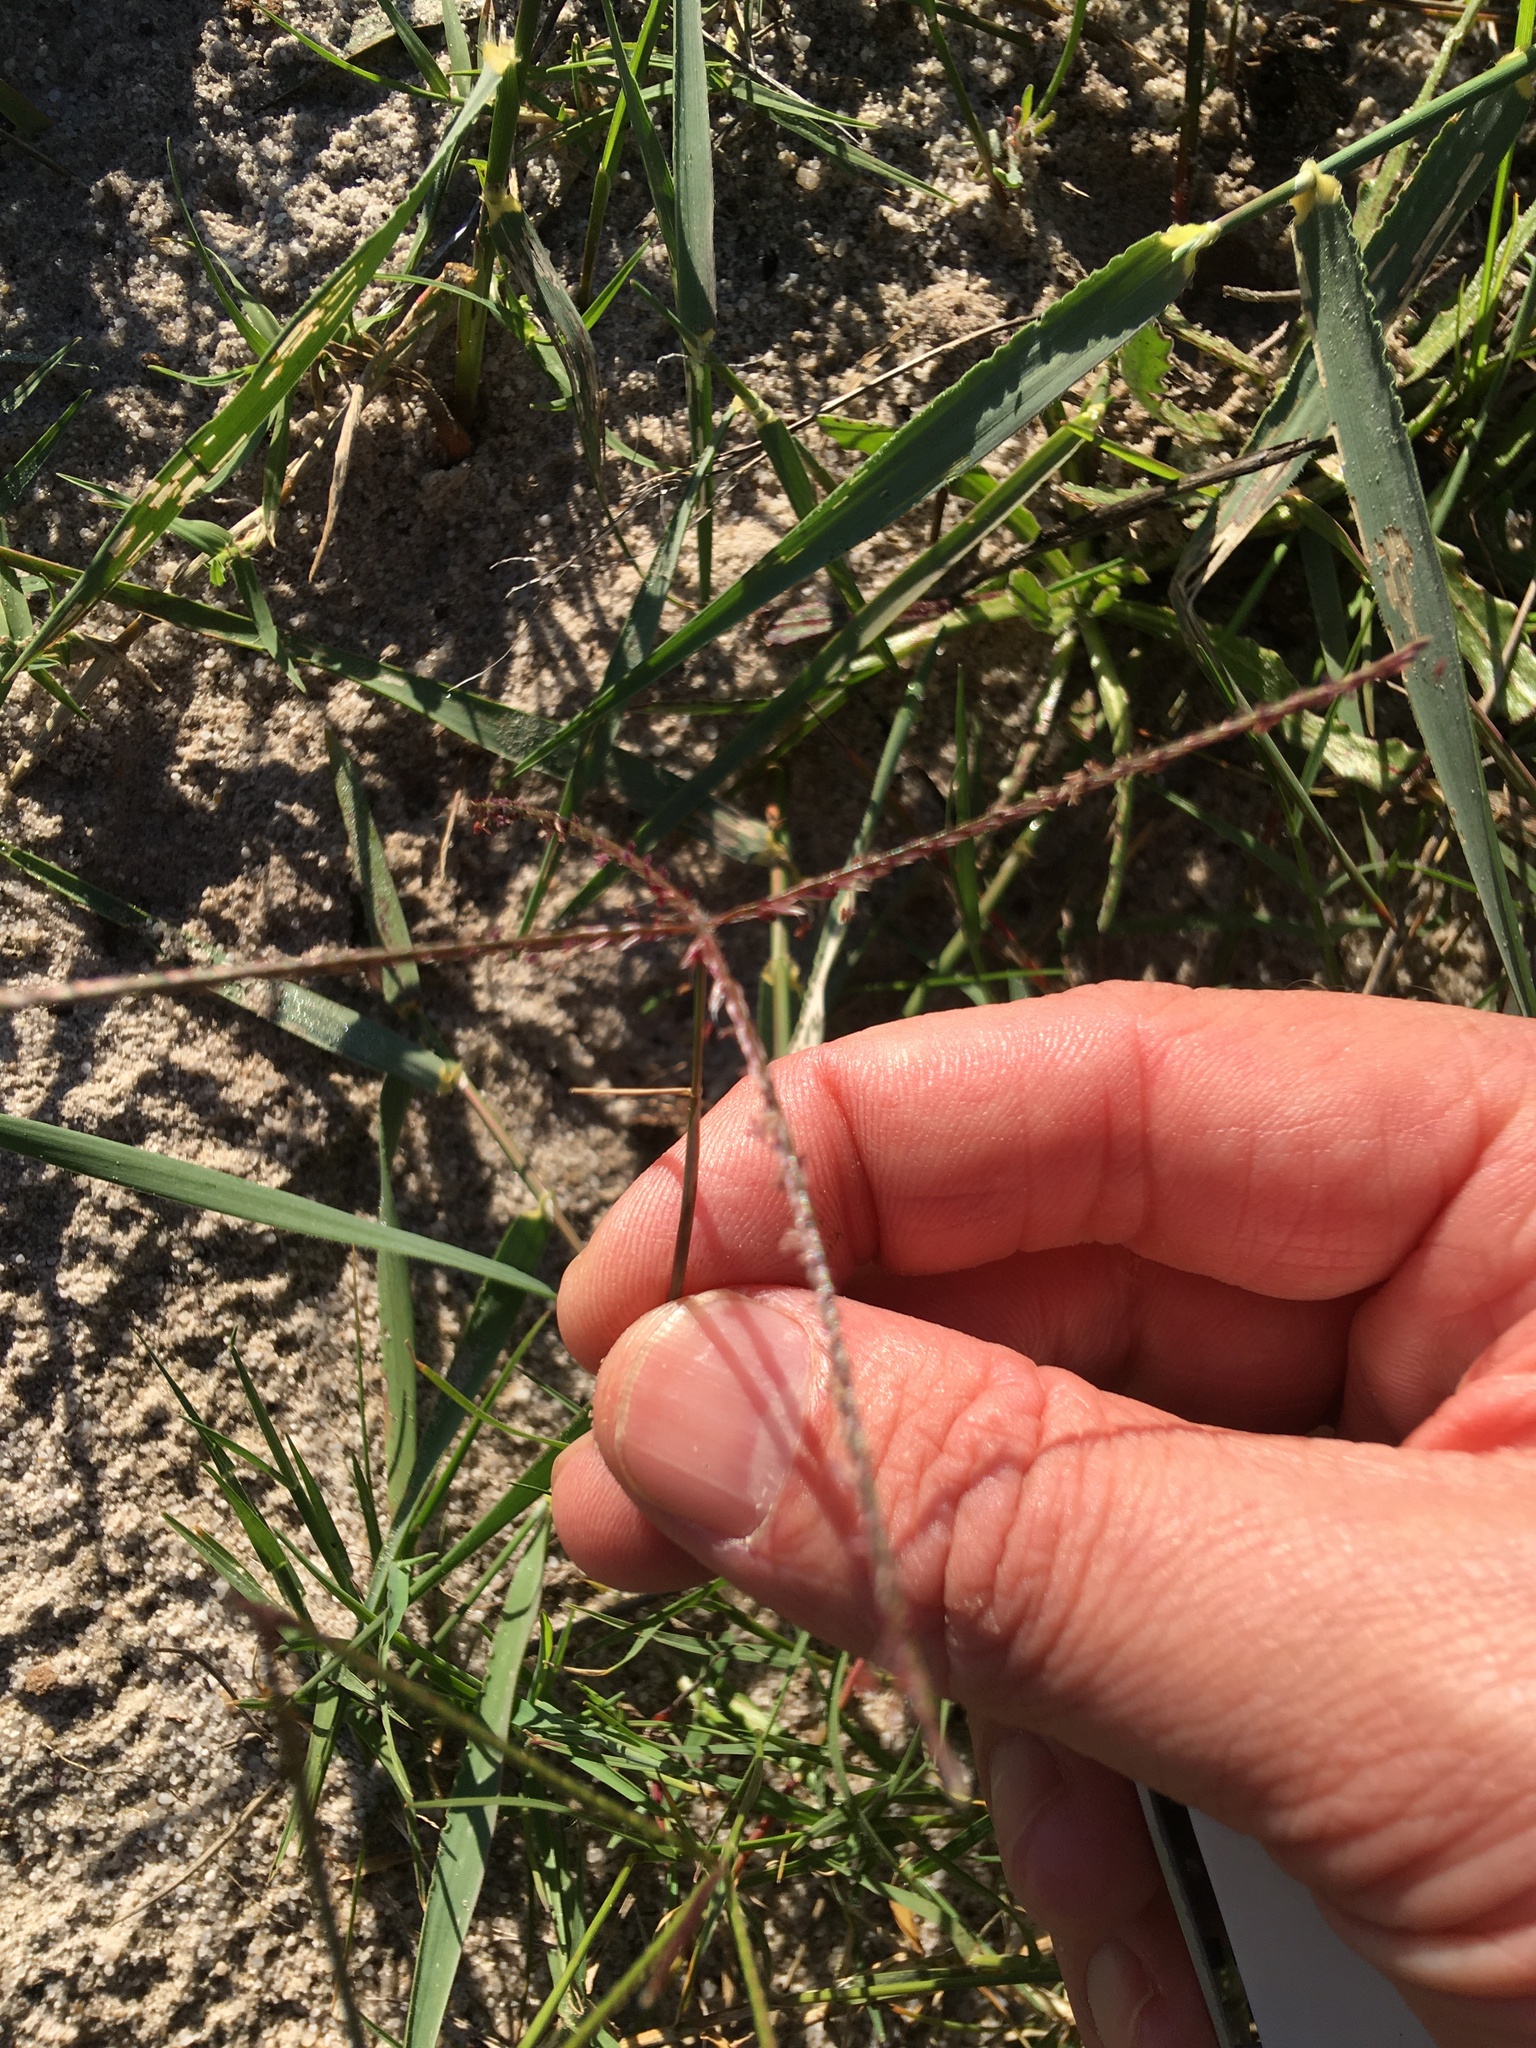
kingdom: Plantae
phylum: Tracheophyta
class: Liliopsida
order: Poales
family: Poaceae
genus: Cynodon
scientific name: Cynodon dactylon
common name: Bermuda grass
